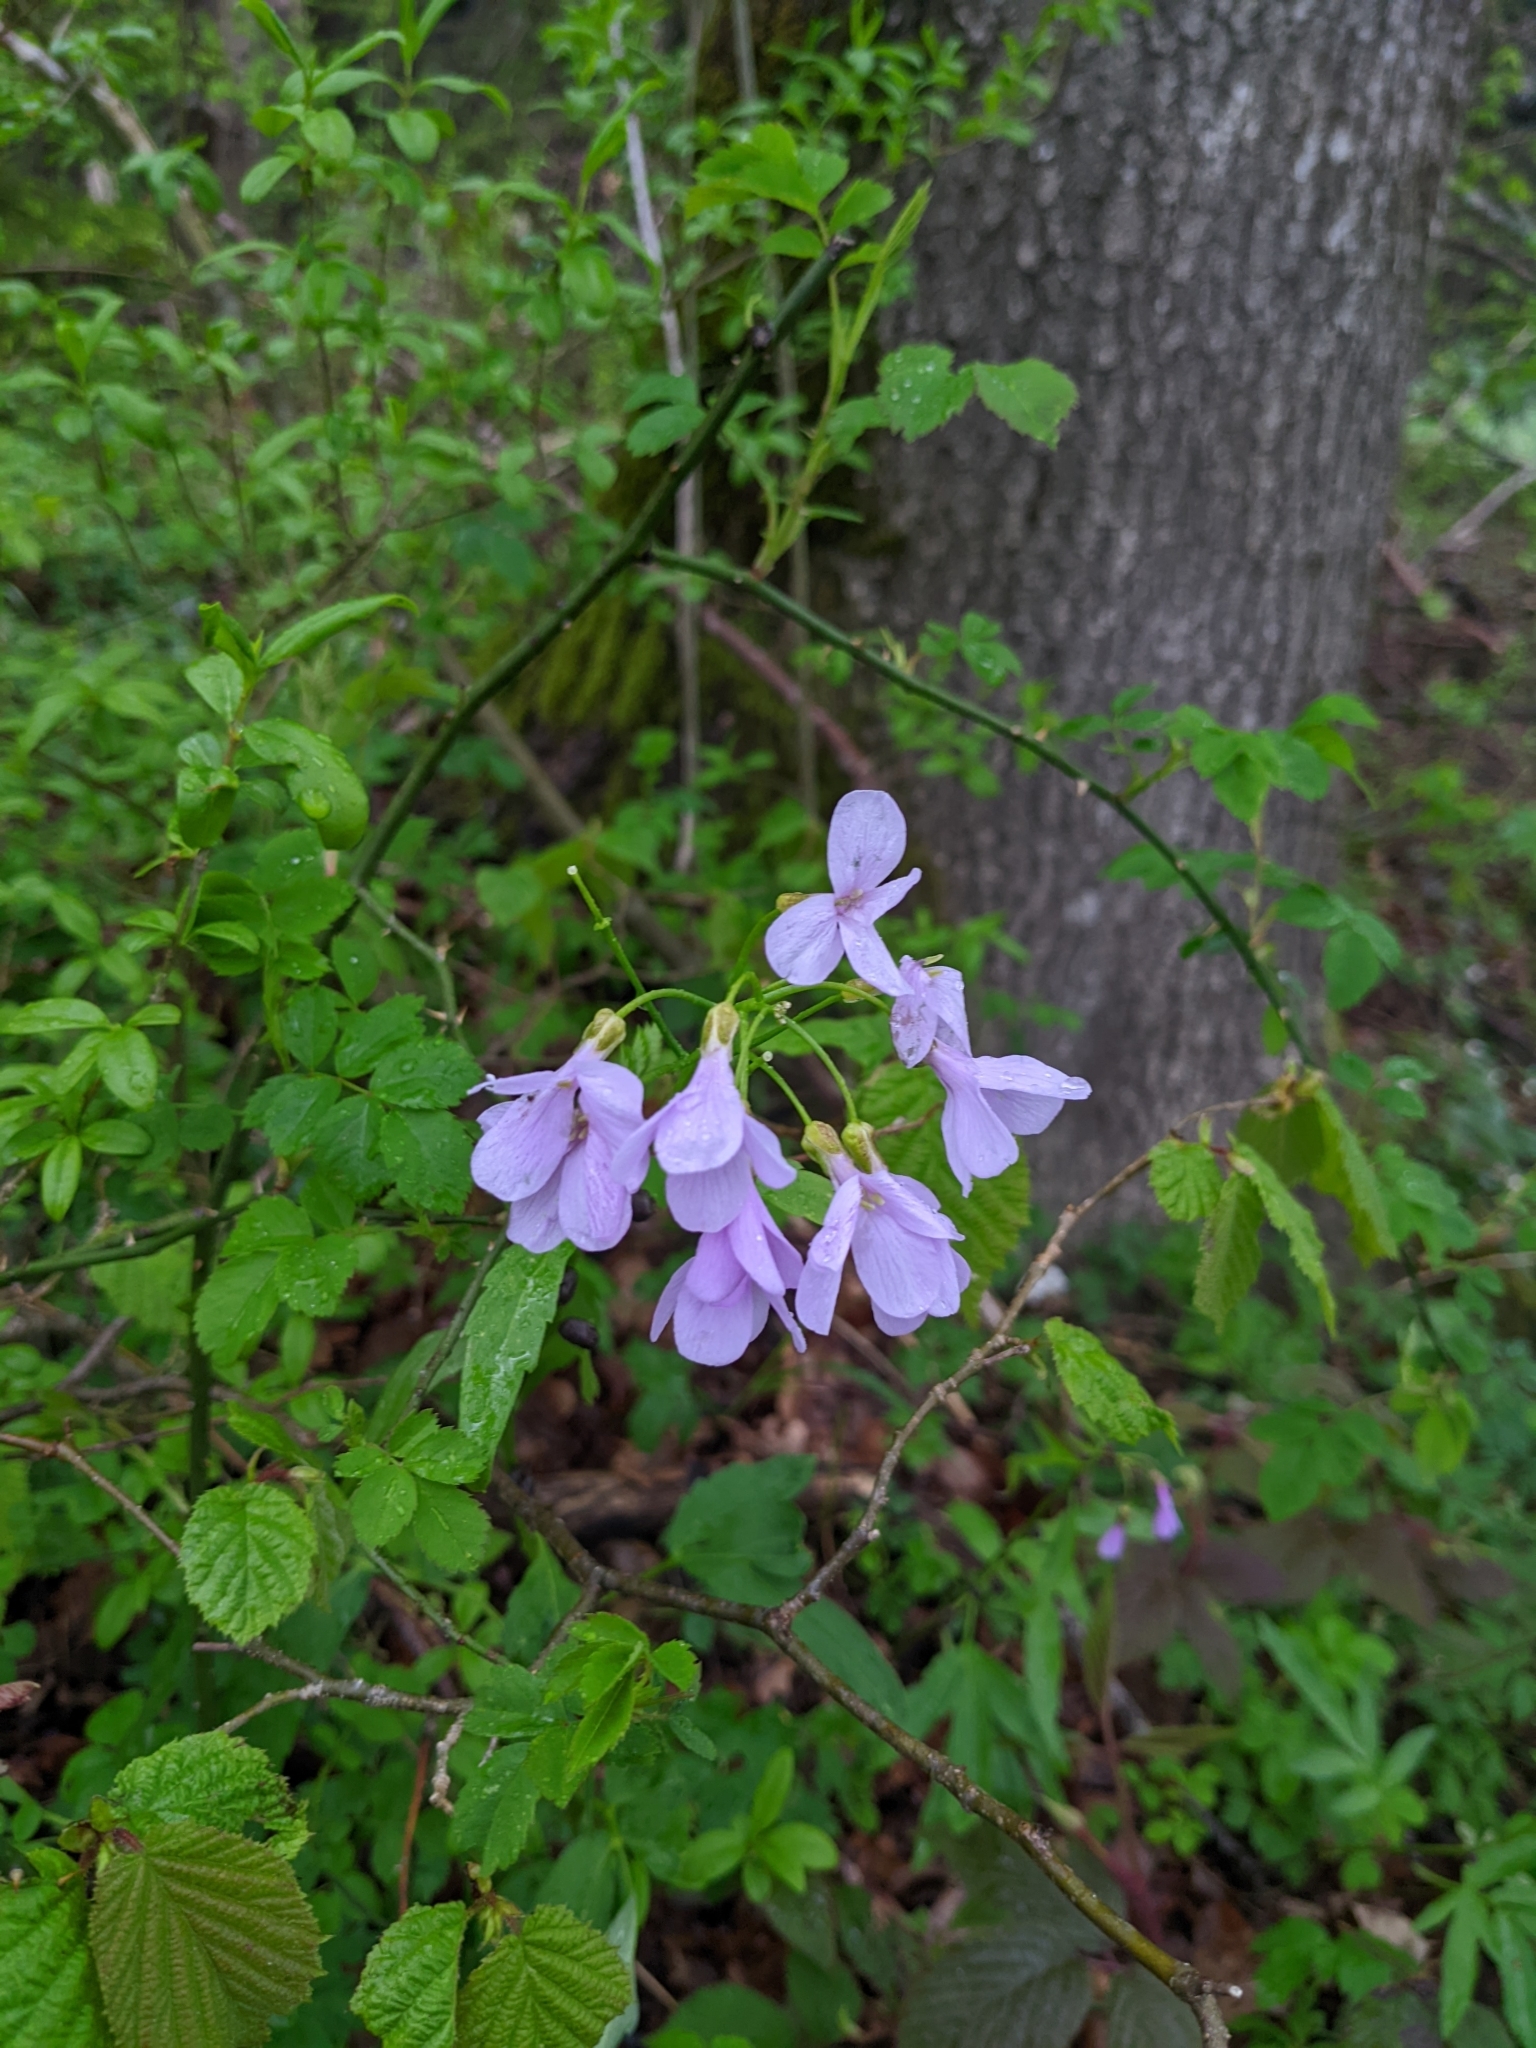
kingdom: Plantae
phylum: Tracheophyta
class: Magnoliopsida
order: Brassicales
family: Brassicaceae
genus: Cardamine
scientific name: Cardamine bulbifera
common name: Coralroot bittercress
